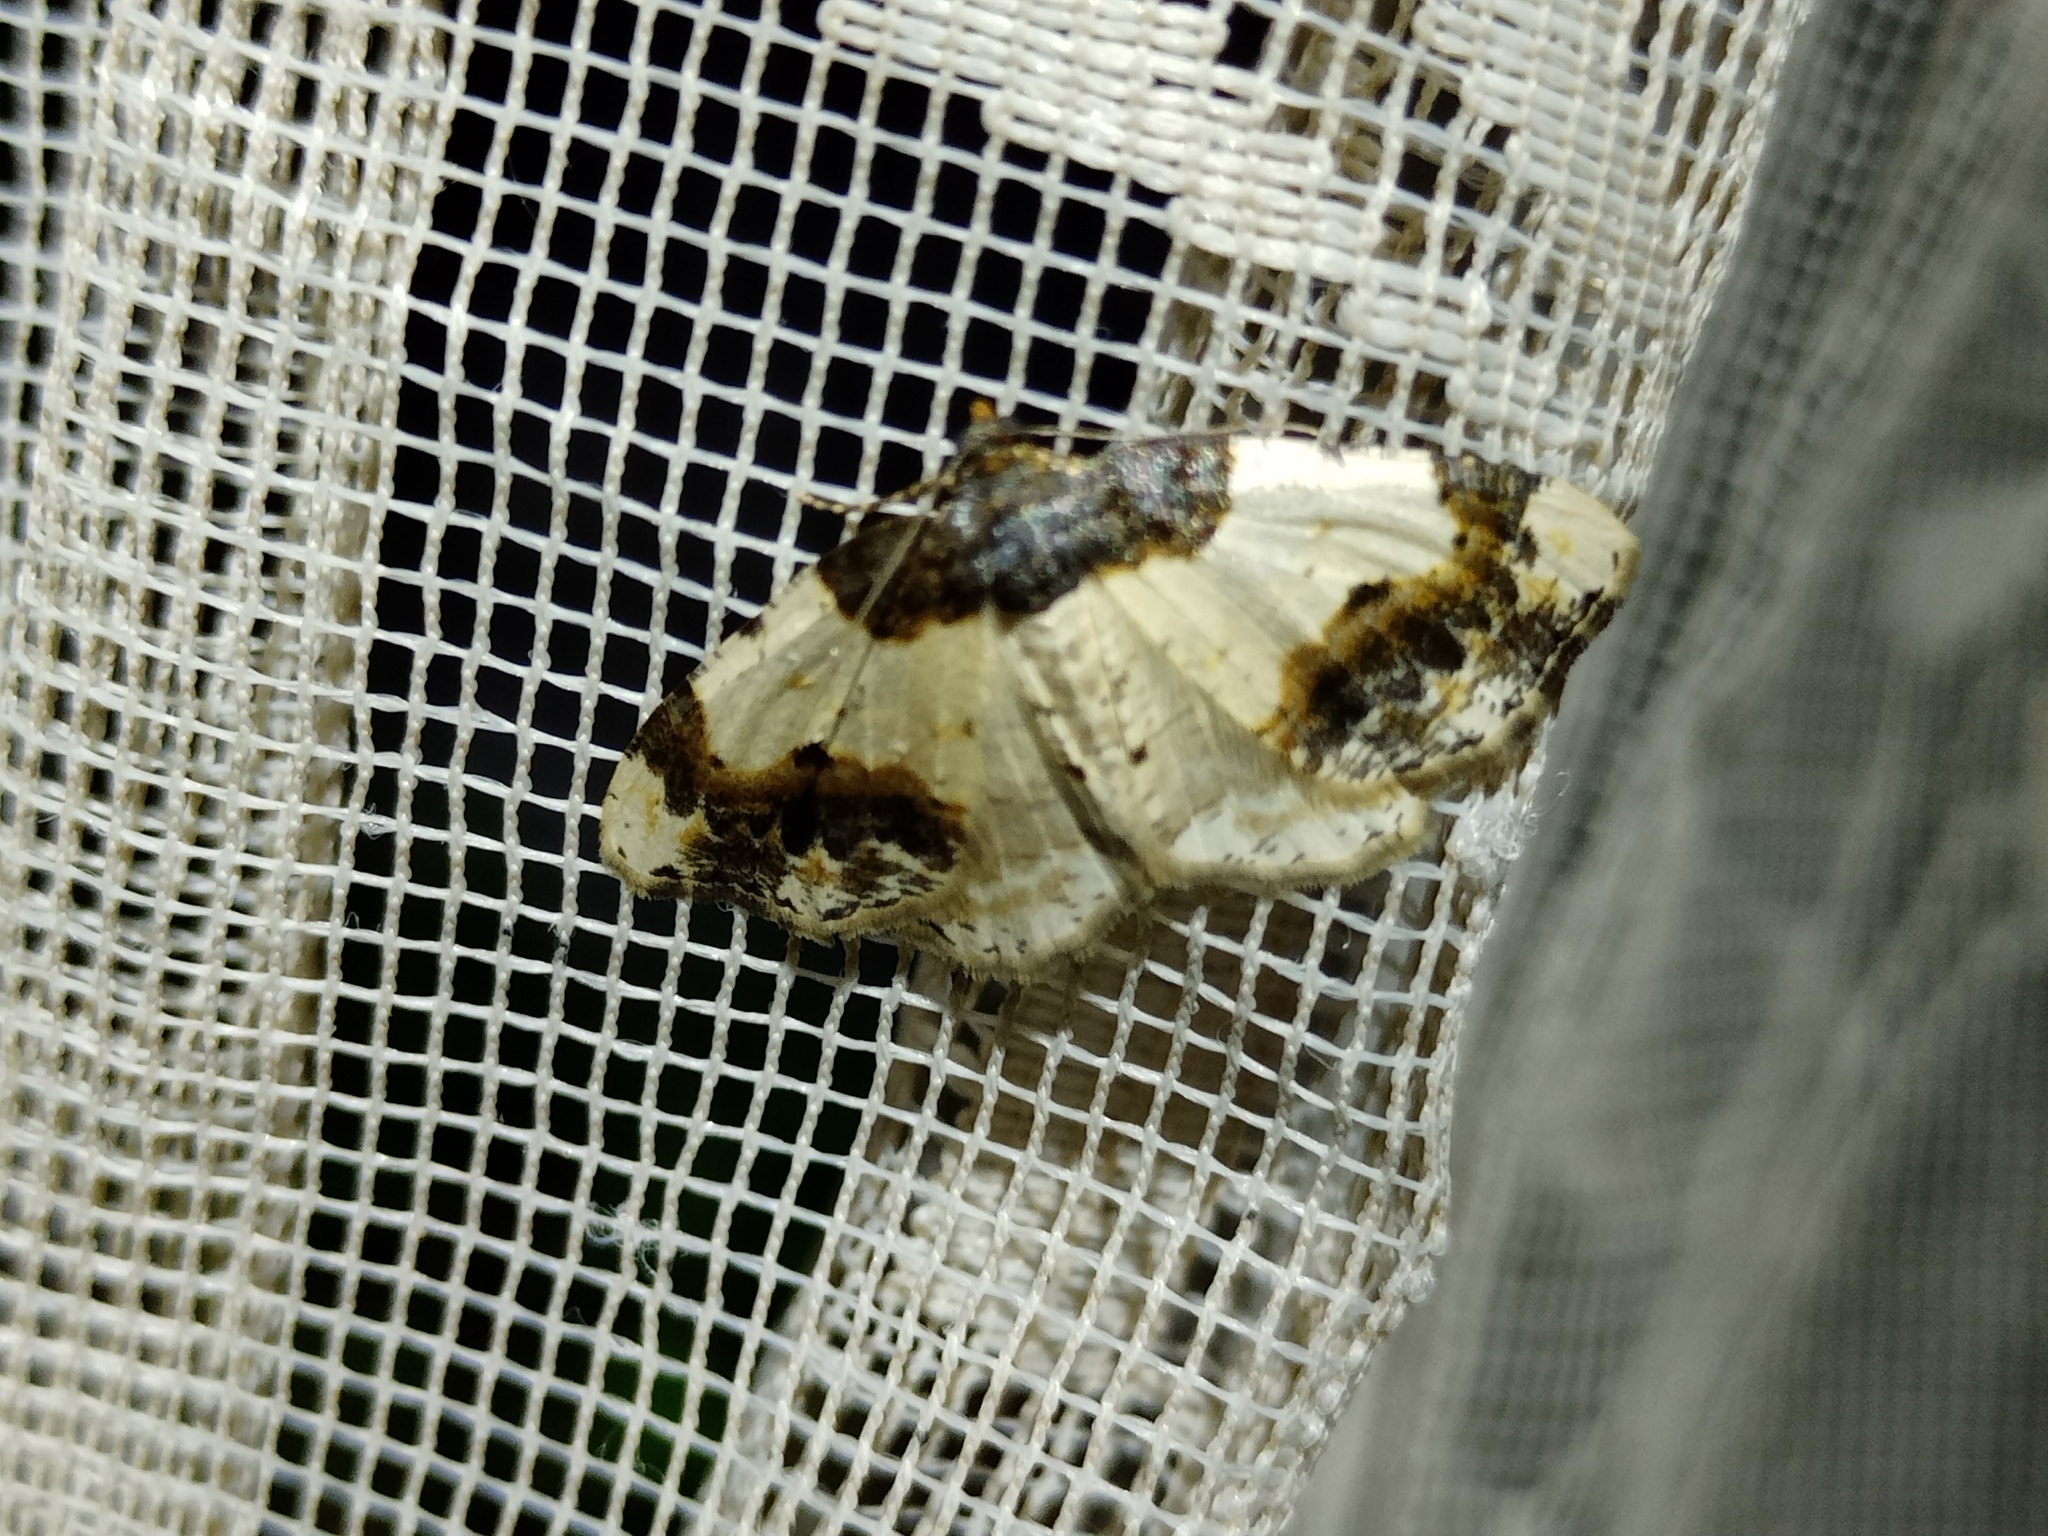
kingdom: Animalia
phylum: Arthropoda
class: Insecta
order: Lepidoptera
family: Geometridae
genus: Ligdia
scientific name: Ligdia adustata
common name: Scorched carpet
